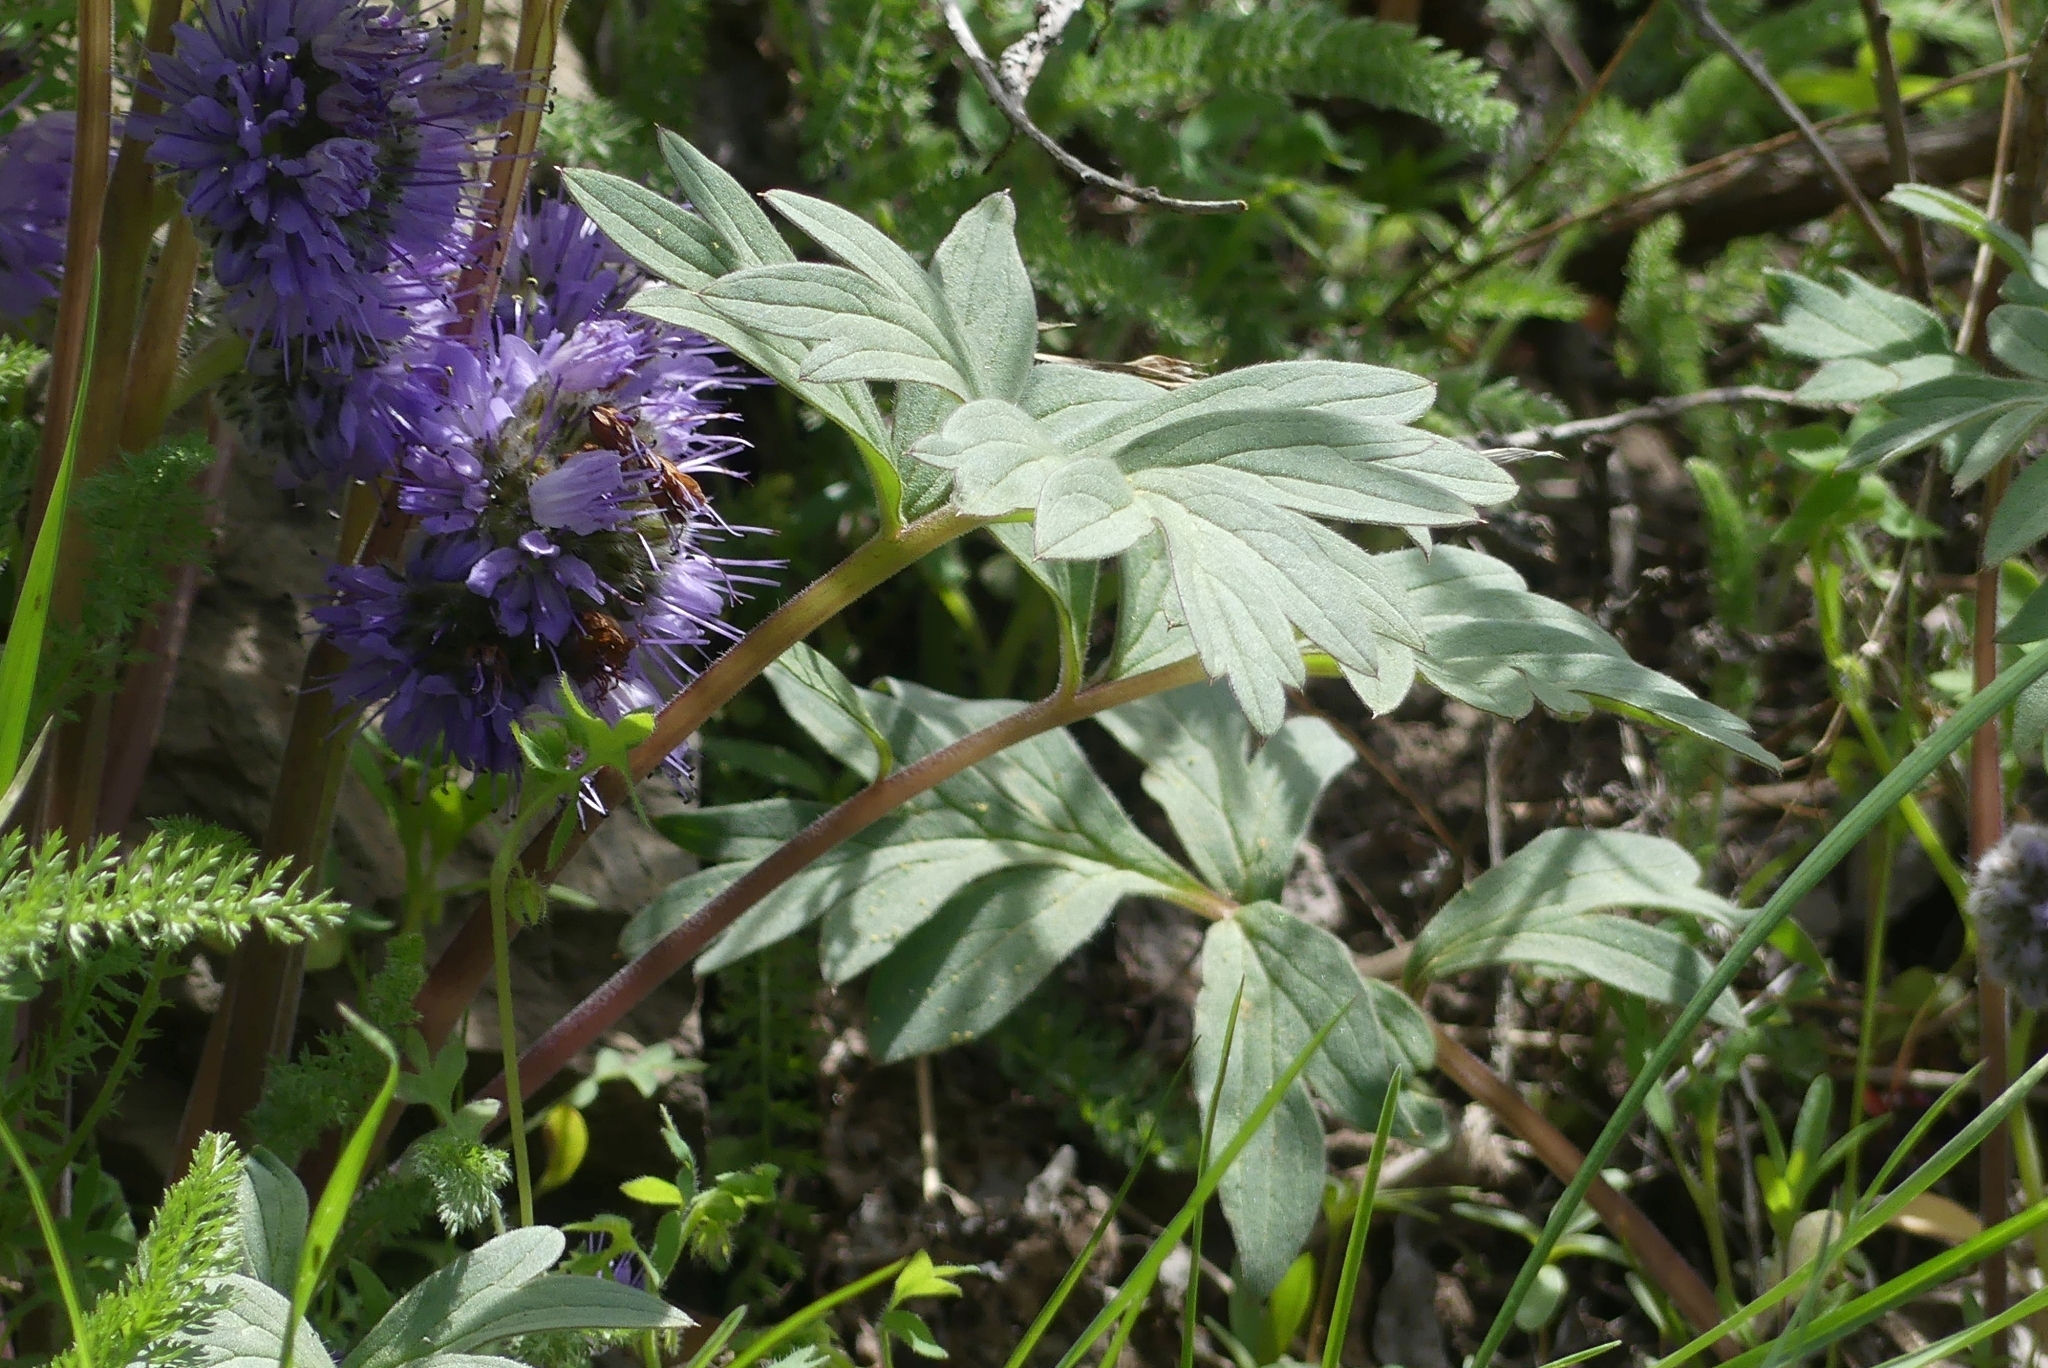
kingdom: Plantae
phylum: Tracheophyta
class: Magnoliopsida
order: Boraginales
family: Hydrophyllaceae
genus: Hydrophyllum
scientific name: Hydrophyllum capitatum
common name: Woollen-breeches
